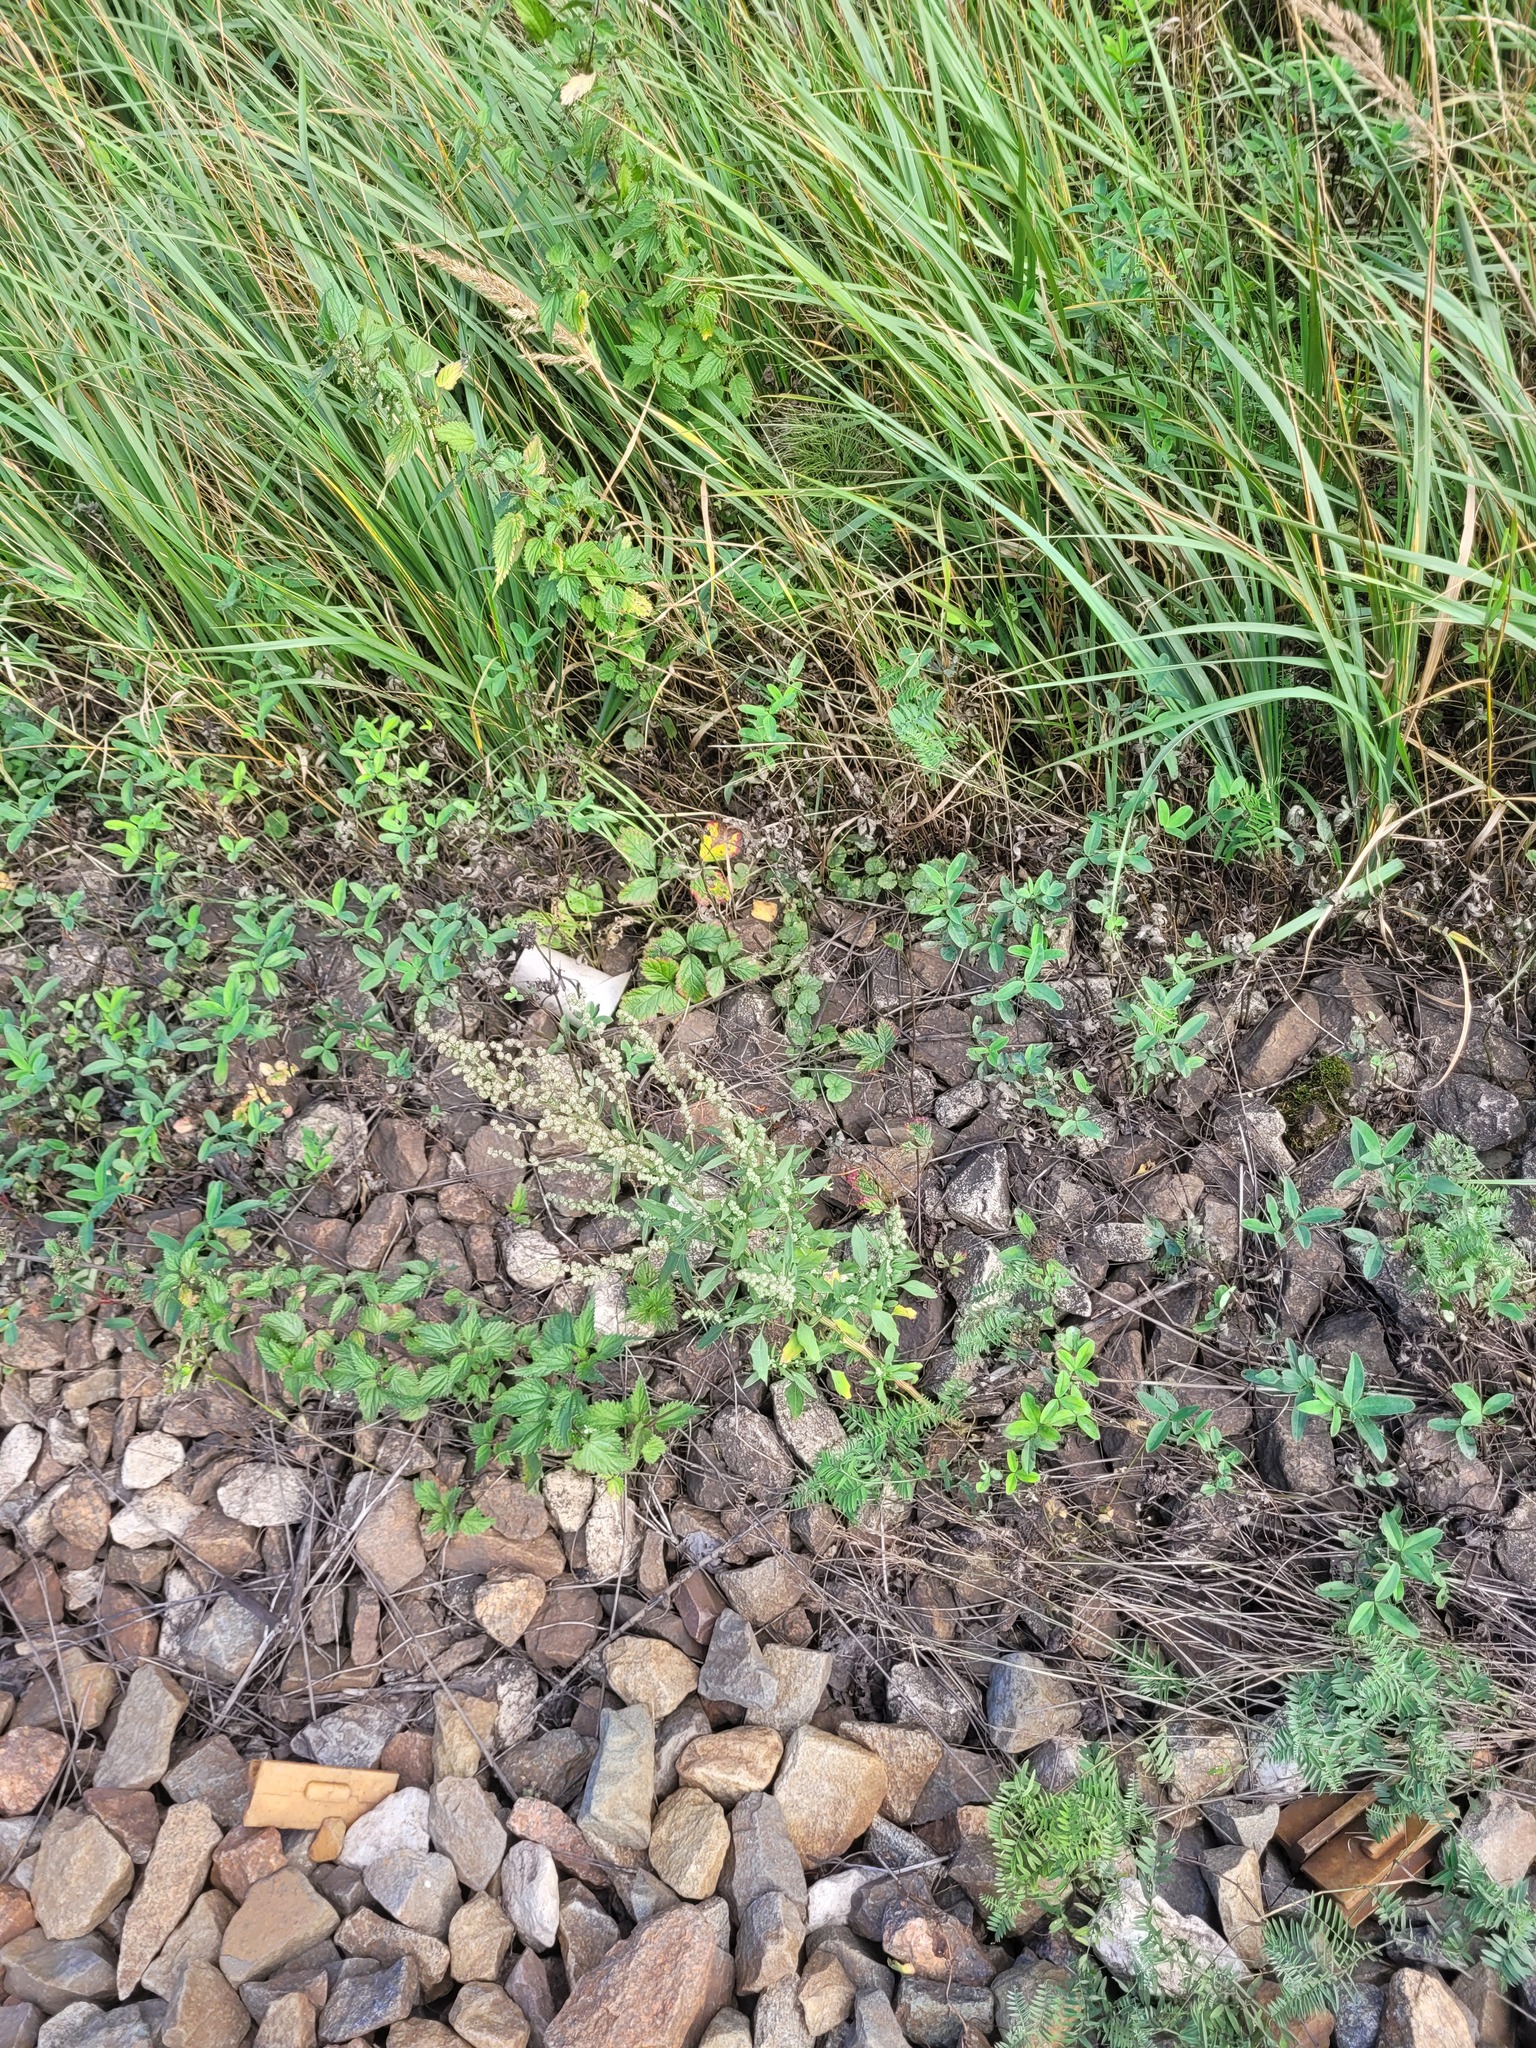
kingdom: Plantae
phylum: Tracheophyta
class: Magnoliopsida
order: Caryophyllales
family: Amaranthaceae
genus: Chenopodium
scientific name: Chenopodium album
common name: Fat-hen
